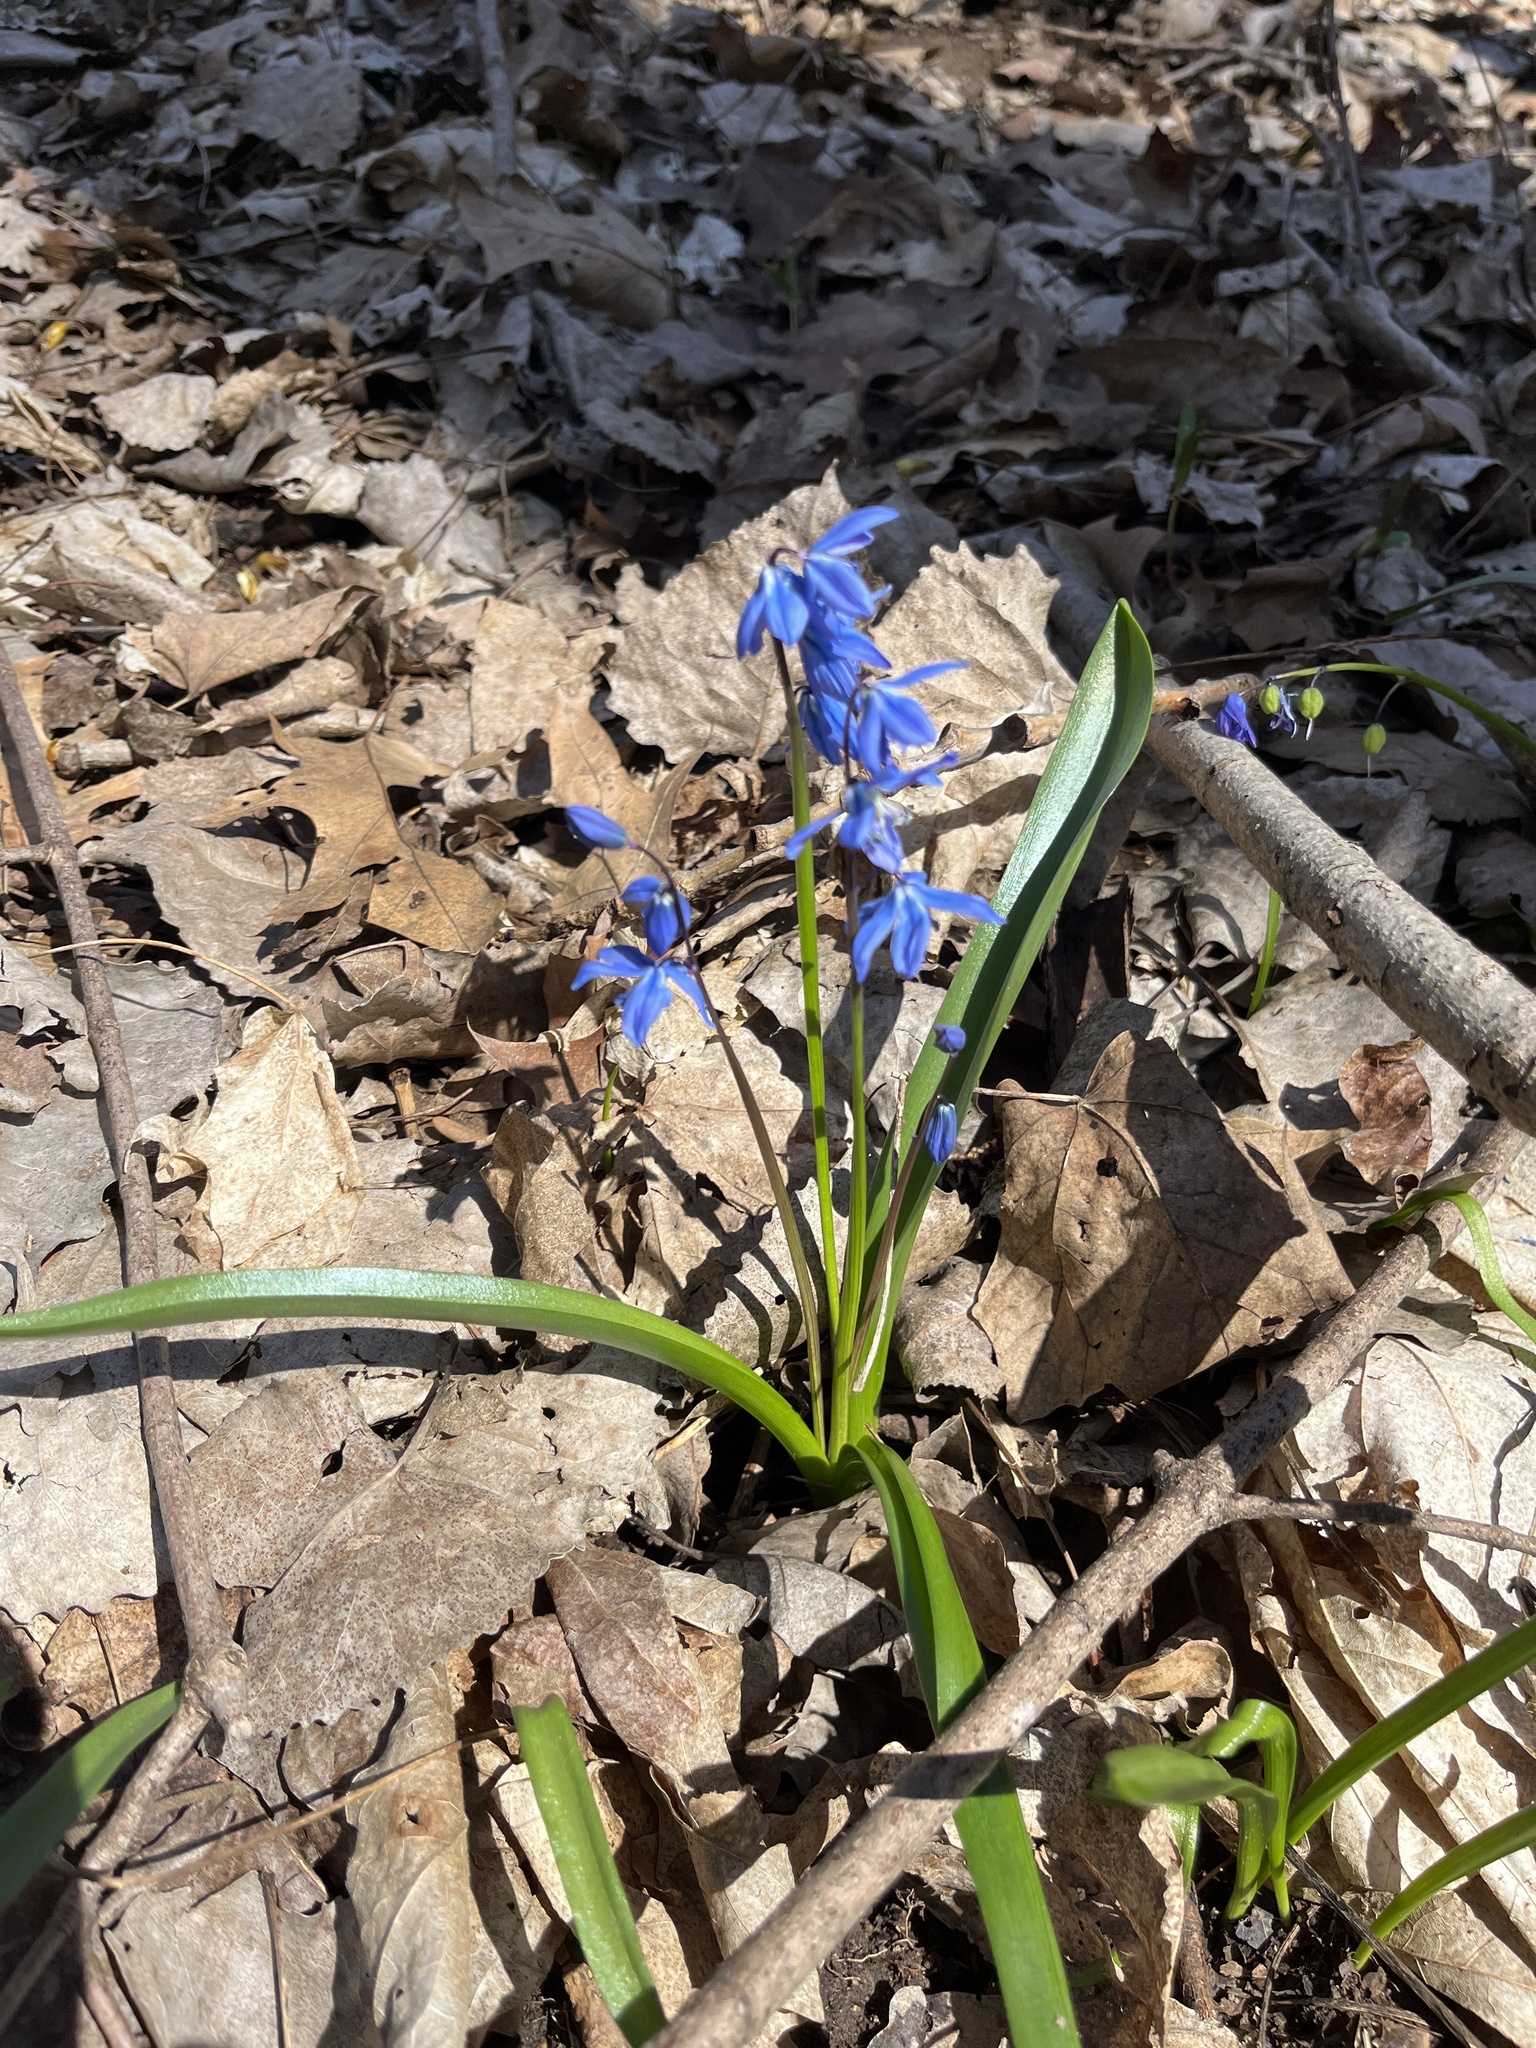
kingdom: Plantae
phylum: Tracheophyta
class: Liliopsida
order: Asparagales
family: Asparagaceae
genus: Scilla
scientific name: Scilla siberica
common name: Siberian squill
